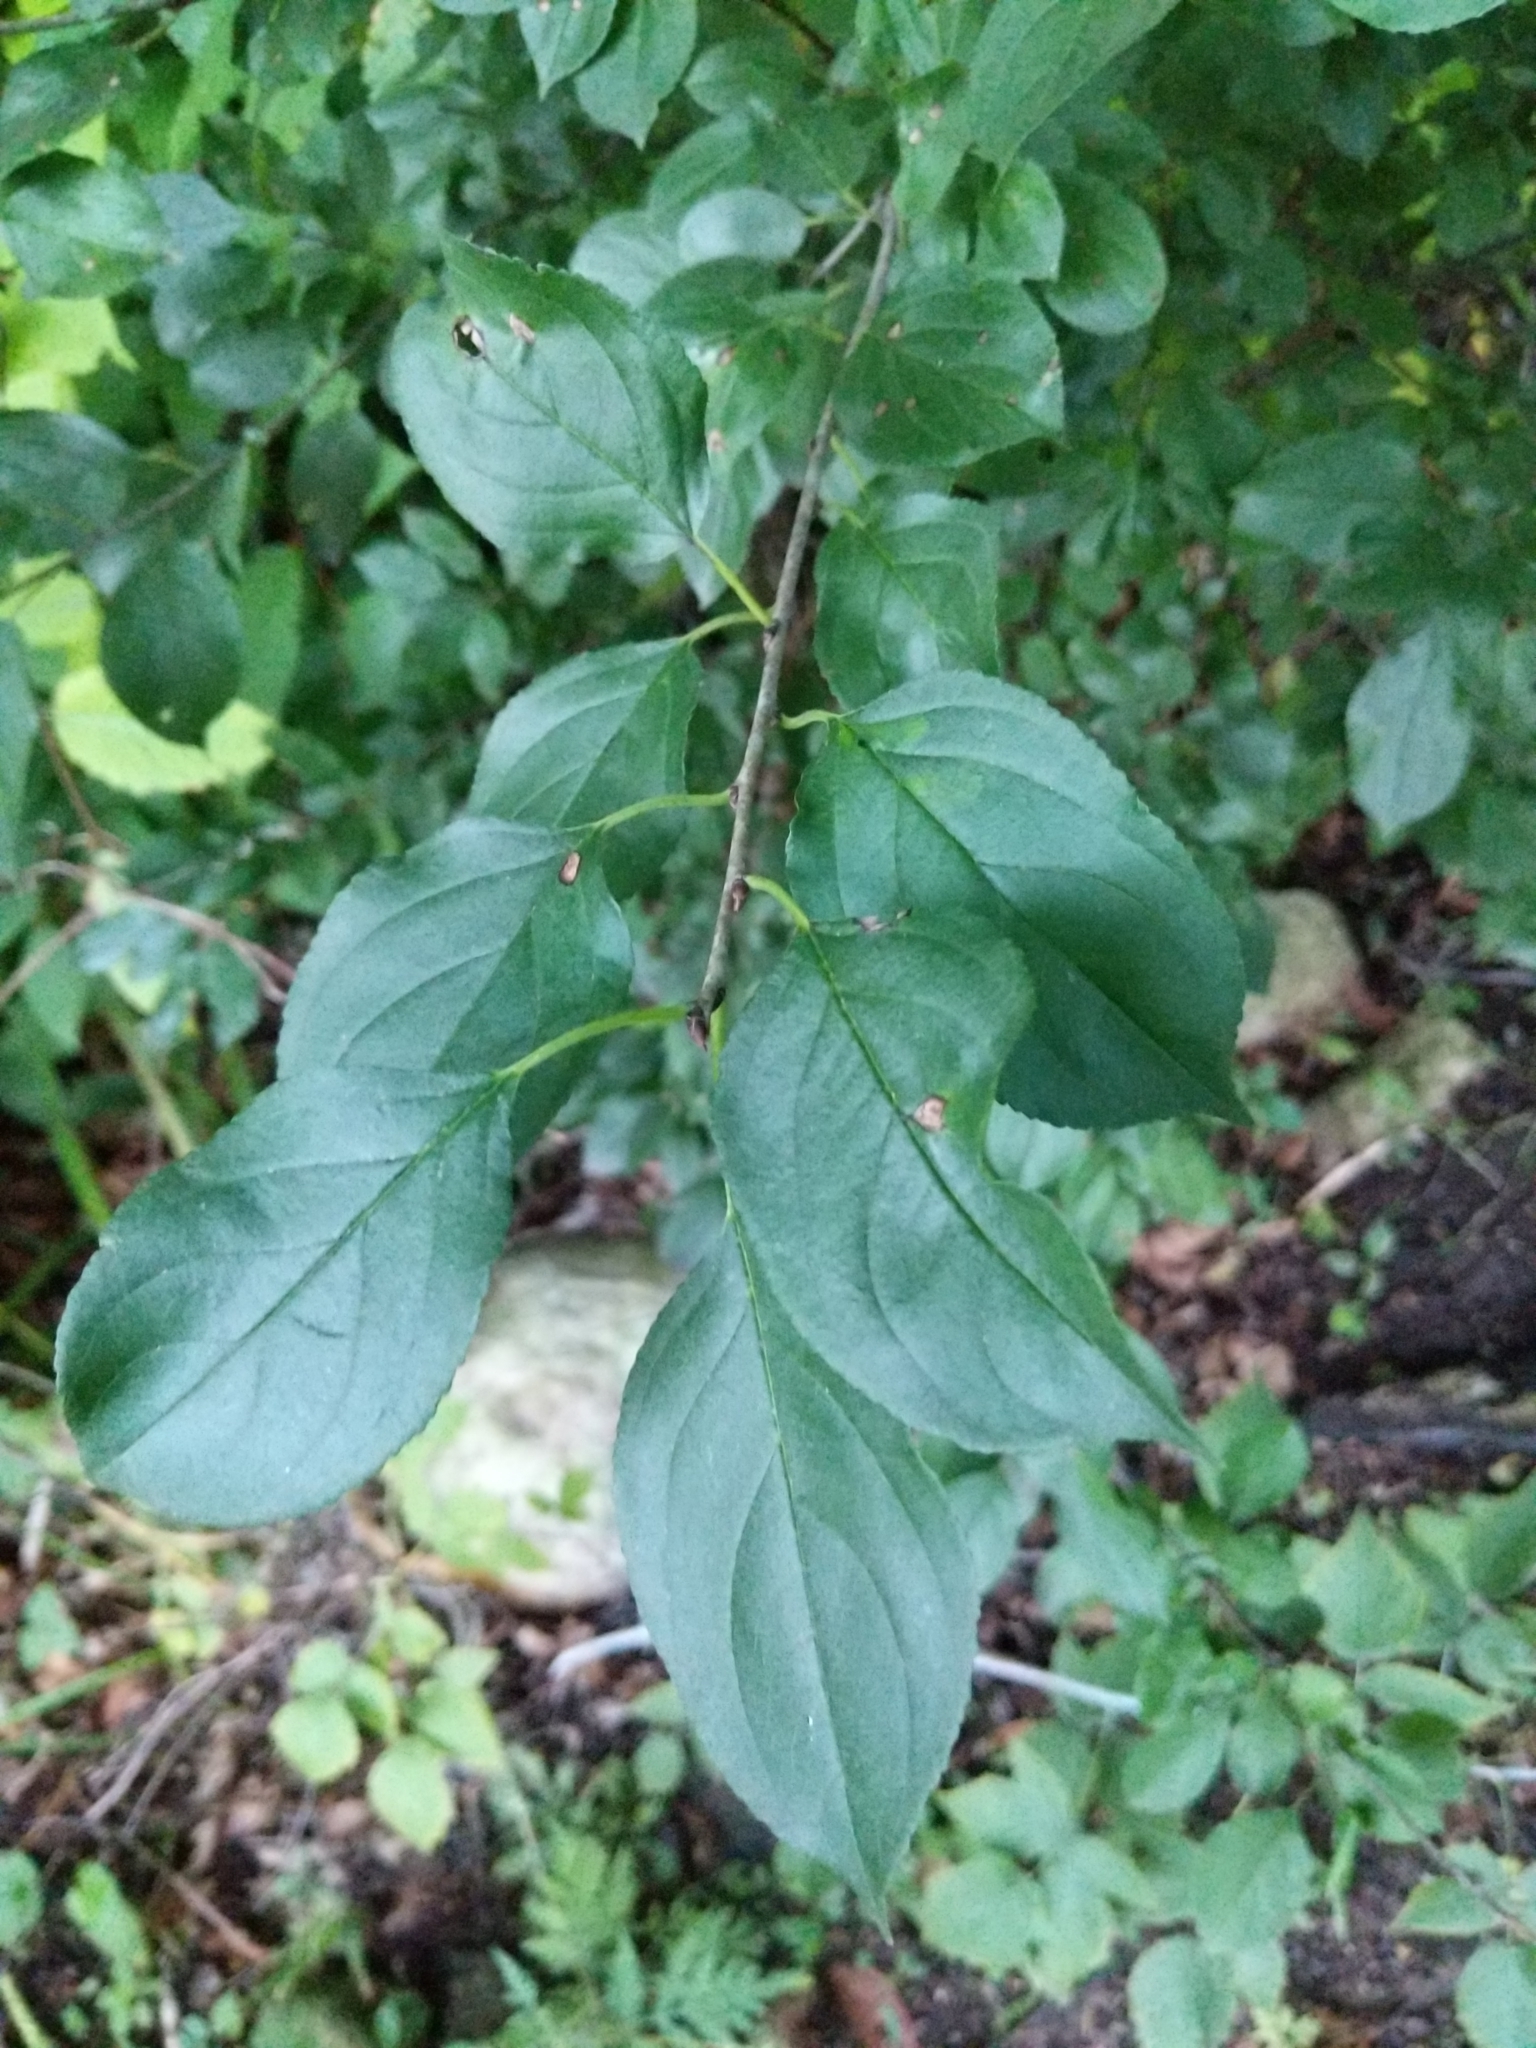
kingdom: Plantae
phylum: Tracheophyta
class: Magnoliopsida
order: Rosales
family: Rhamnaceae
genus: Rhamnus
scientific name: Rhamnus cathartica
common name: Common buckthorn
